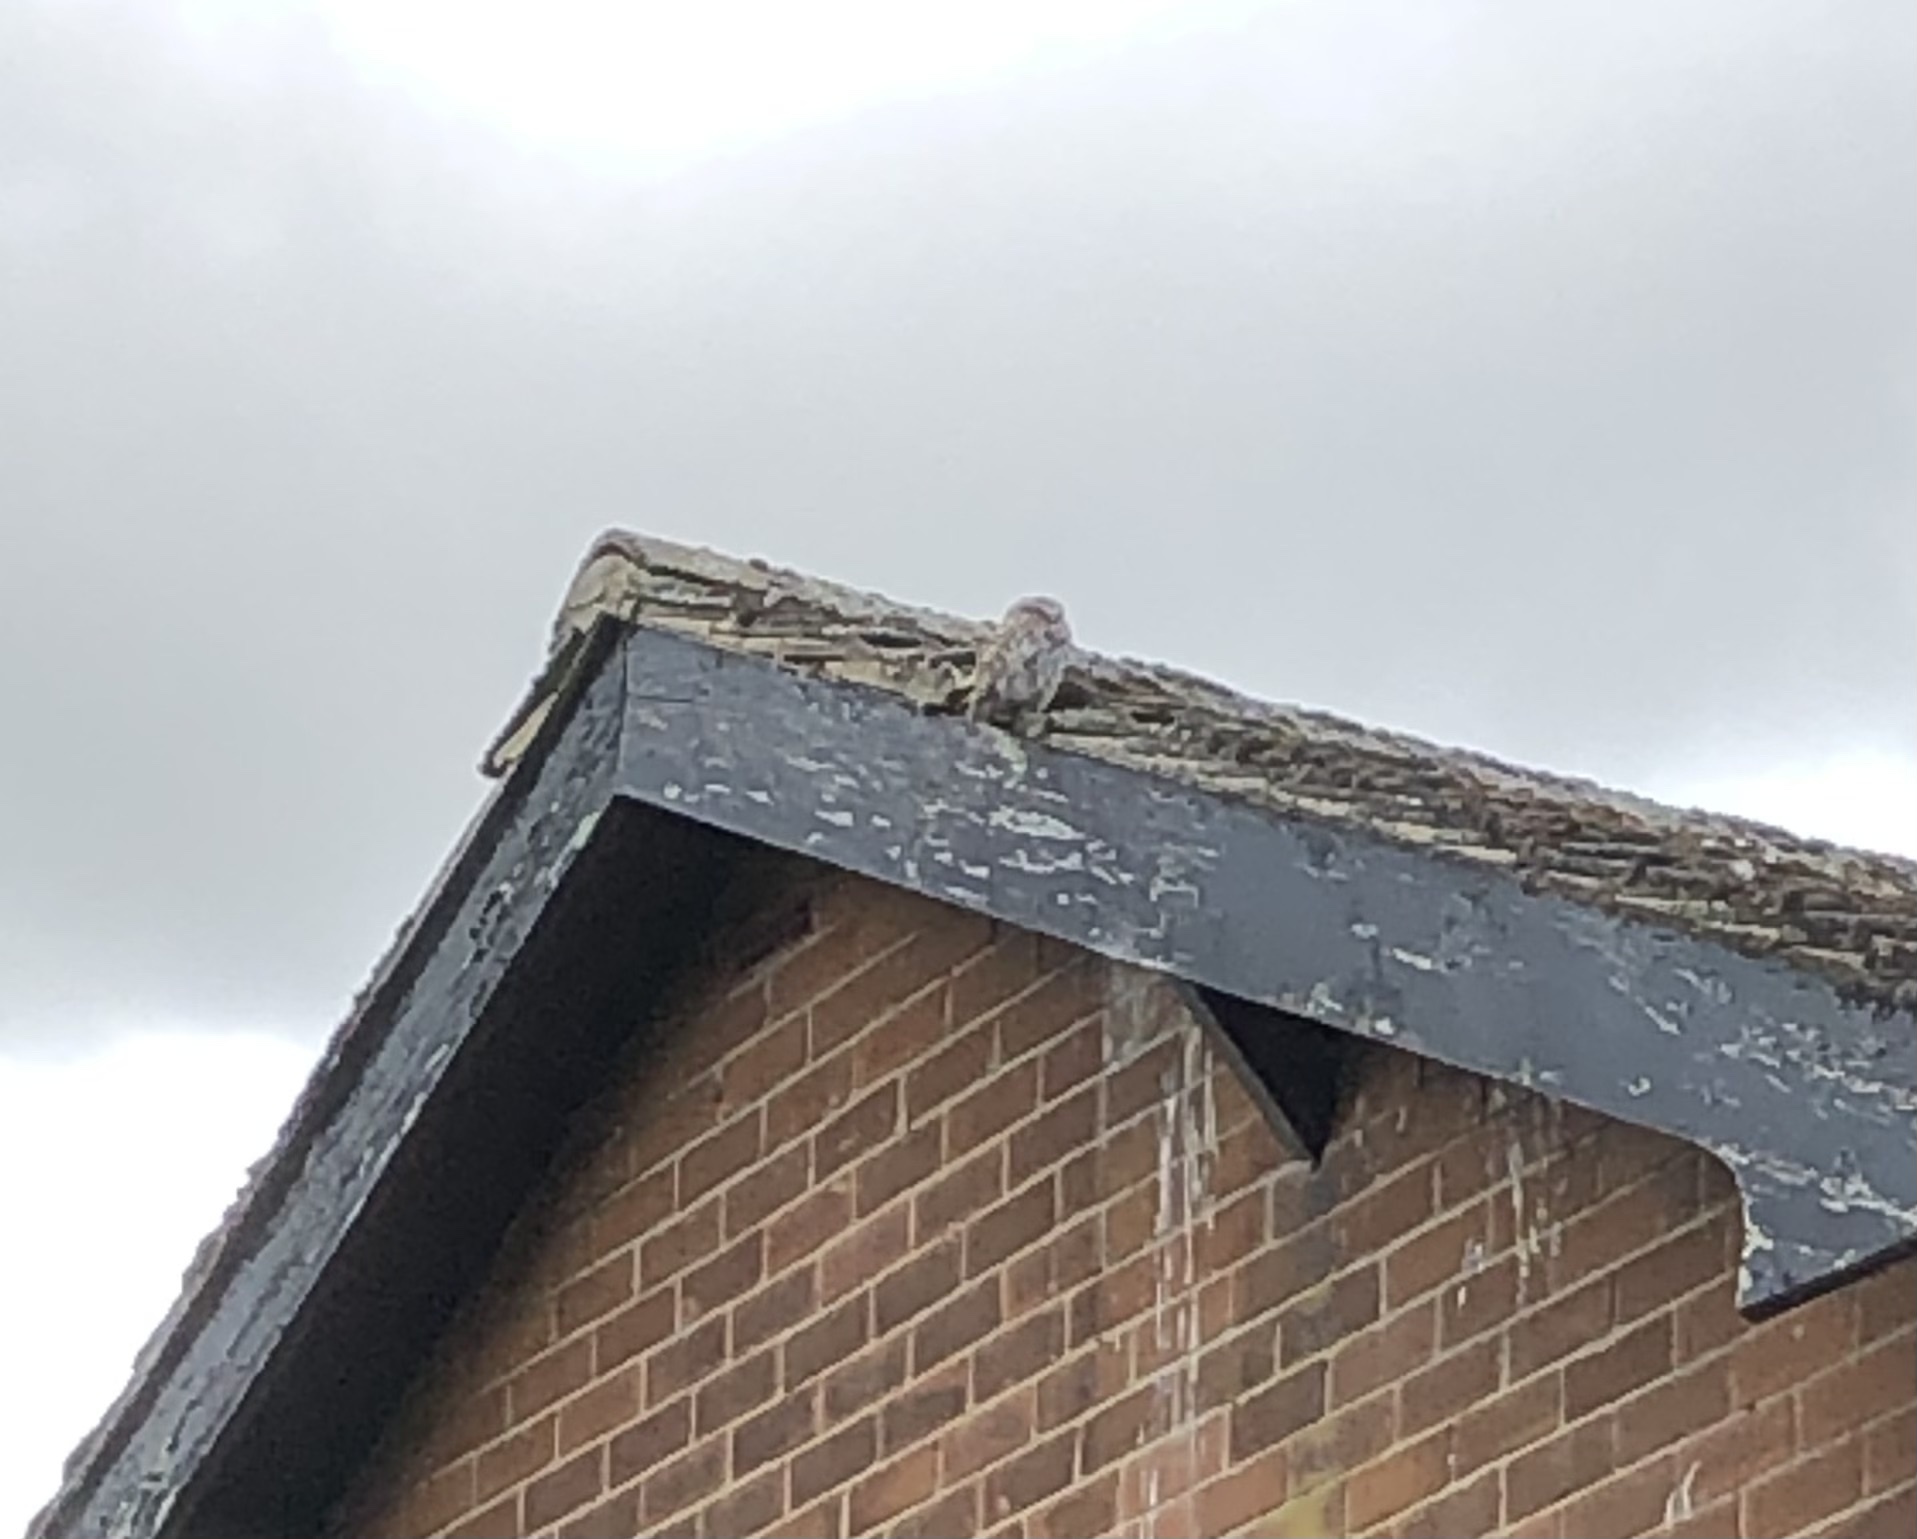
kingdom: Animalia
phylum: Chordata
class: Aves
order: Strigiformes
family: Strigidae
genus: Athene
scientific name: Athene noctua
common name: Little owl
